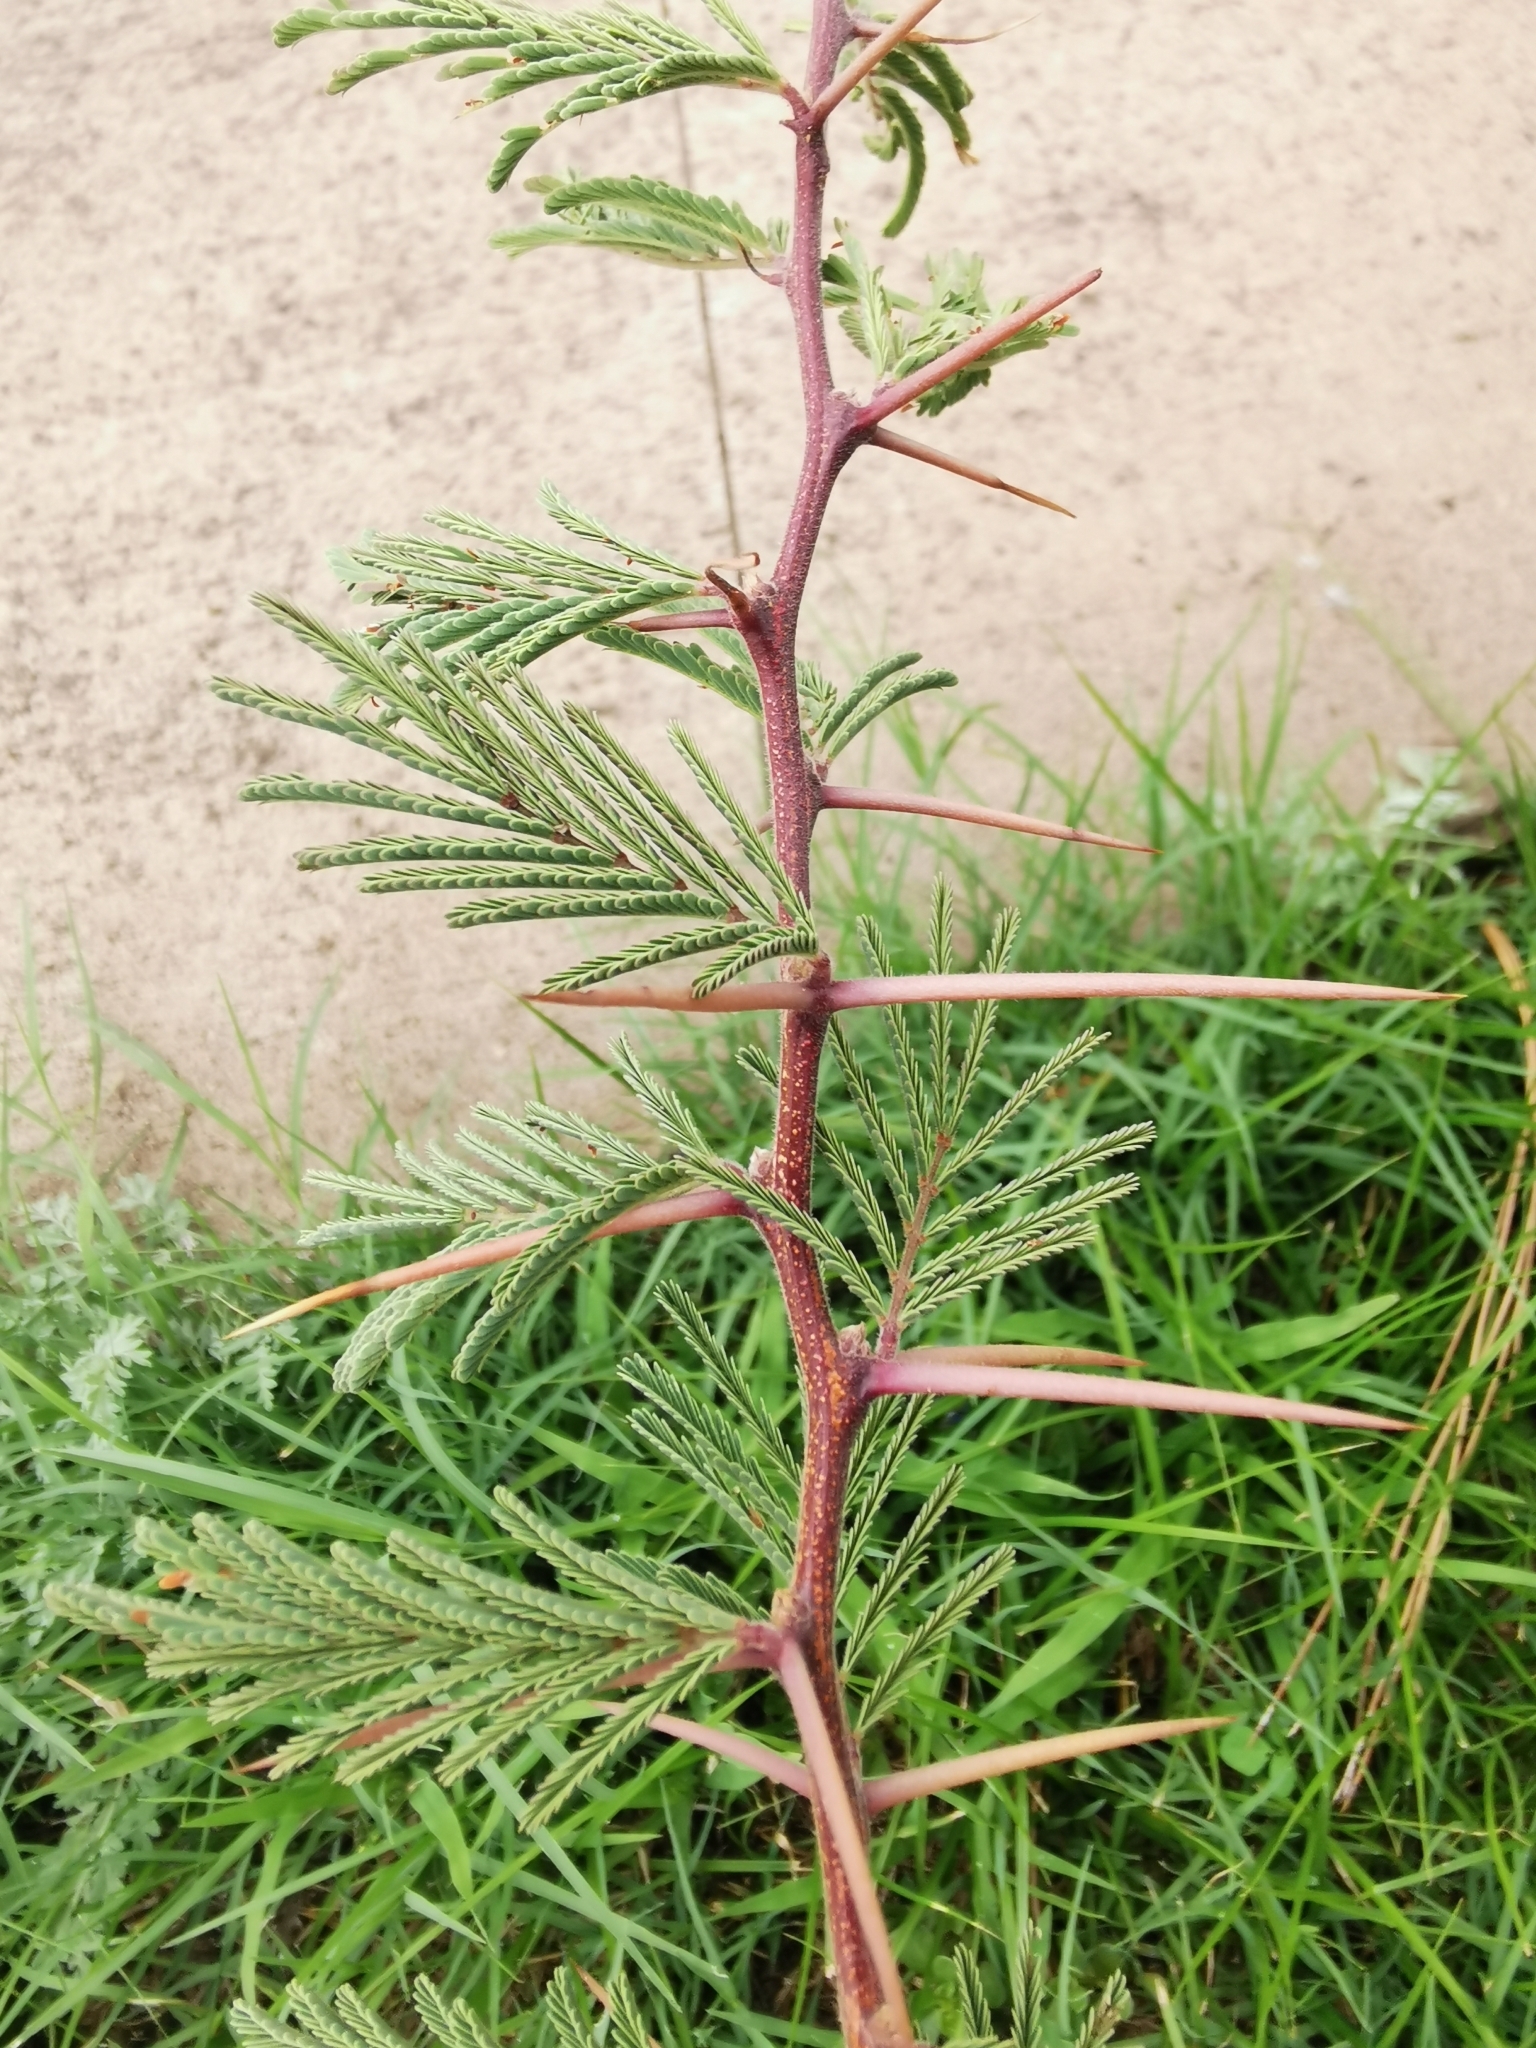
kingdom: Plantae
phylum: Tracheophyta
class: Magnoliopsida
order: Fabales
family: Fabaceae
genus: Vachellia
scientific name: Vachellia schaffneri
